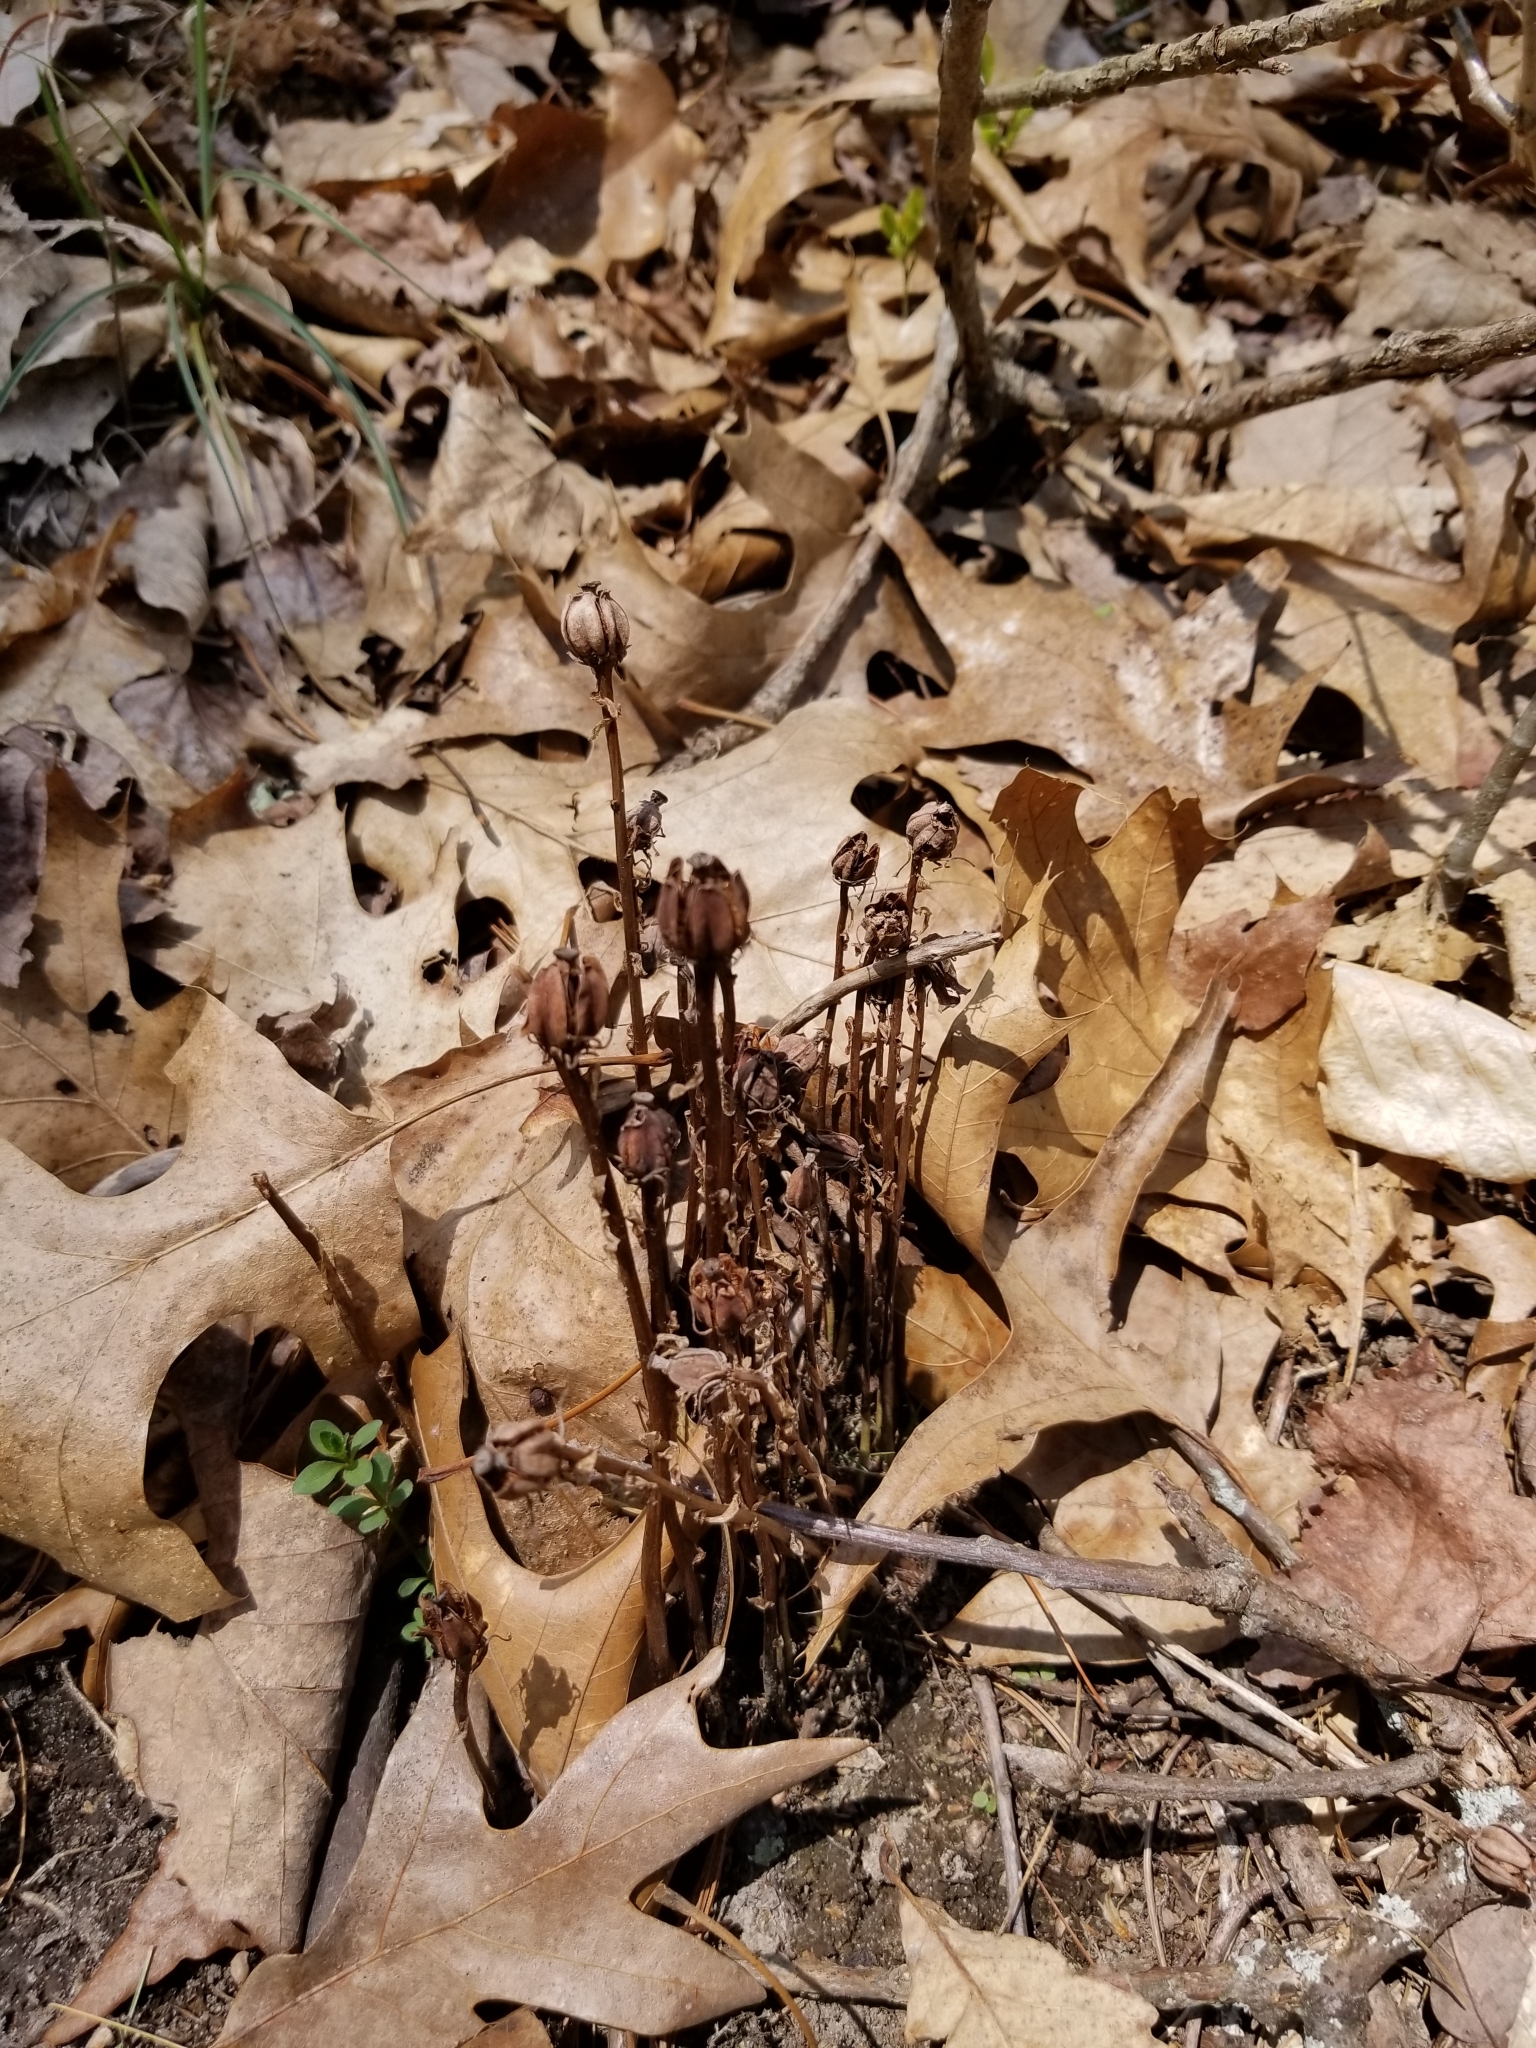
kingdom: Plantae
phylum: Tracheophyta
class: Magnoliopsida
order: Ericales
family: Ericaceae
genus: Monotropa
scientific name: Monotropa uniflora
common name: Convulsion root
